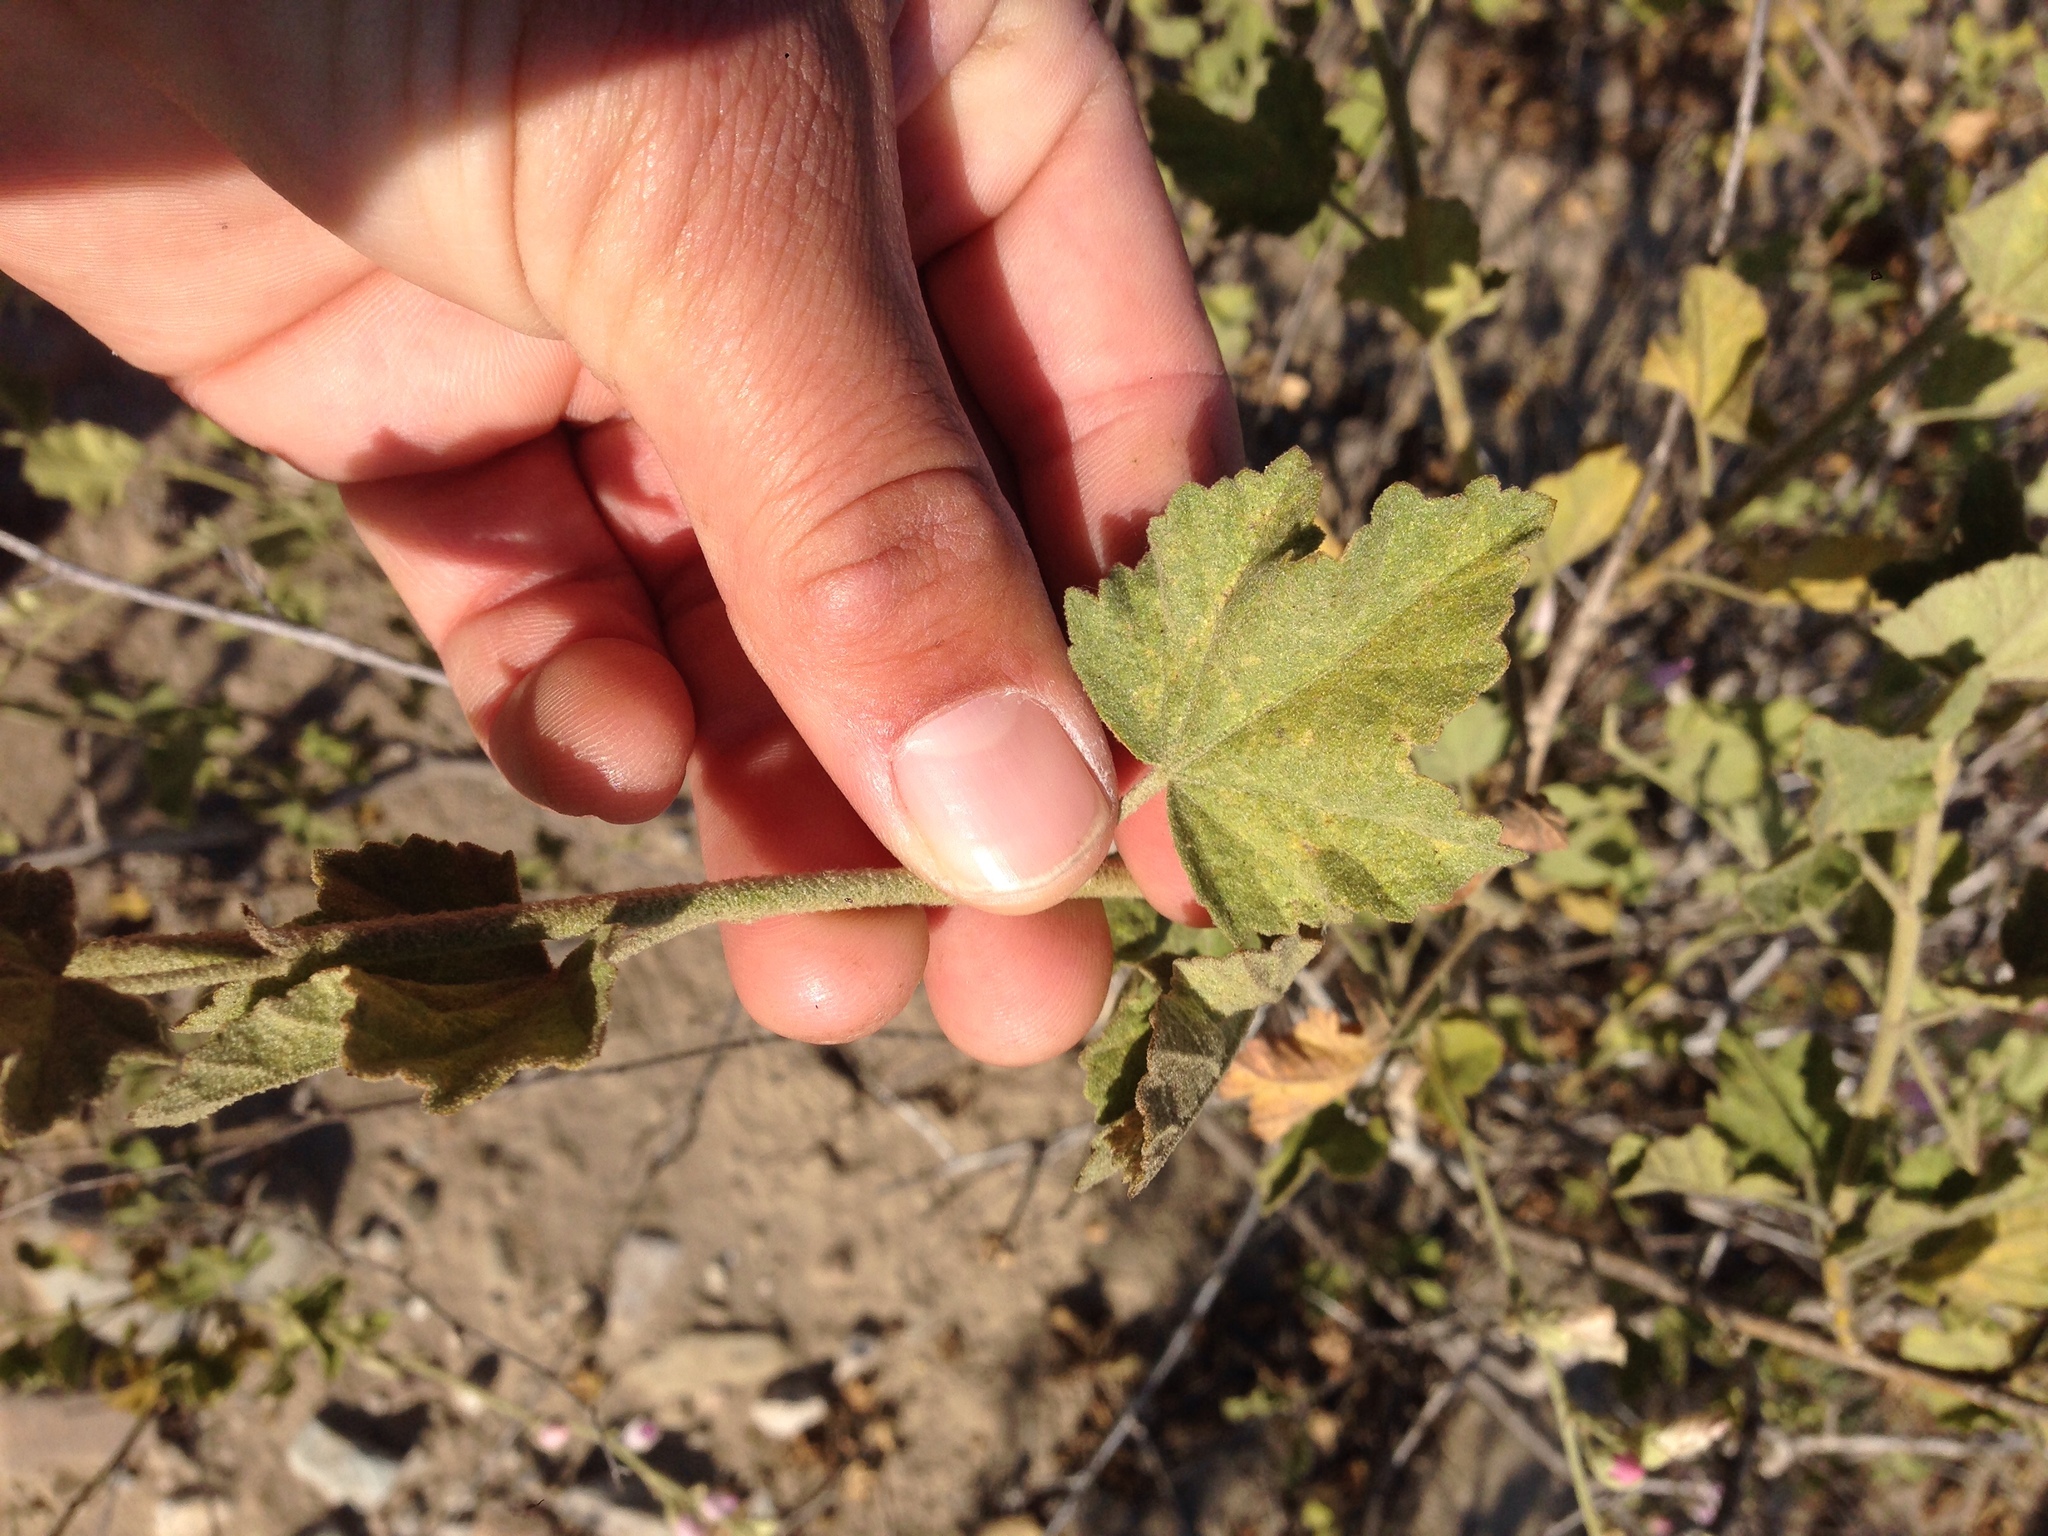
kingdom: Plantae
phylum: Tracheophyta
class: Magnoliopsida
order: Malvales
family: Malvaceae
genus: Malacothamnus
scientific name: Malacothamnus fasciculatus
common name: Sant cruz island bush-mallow
